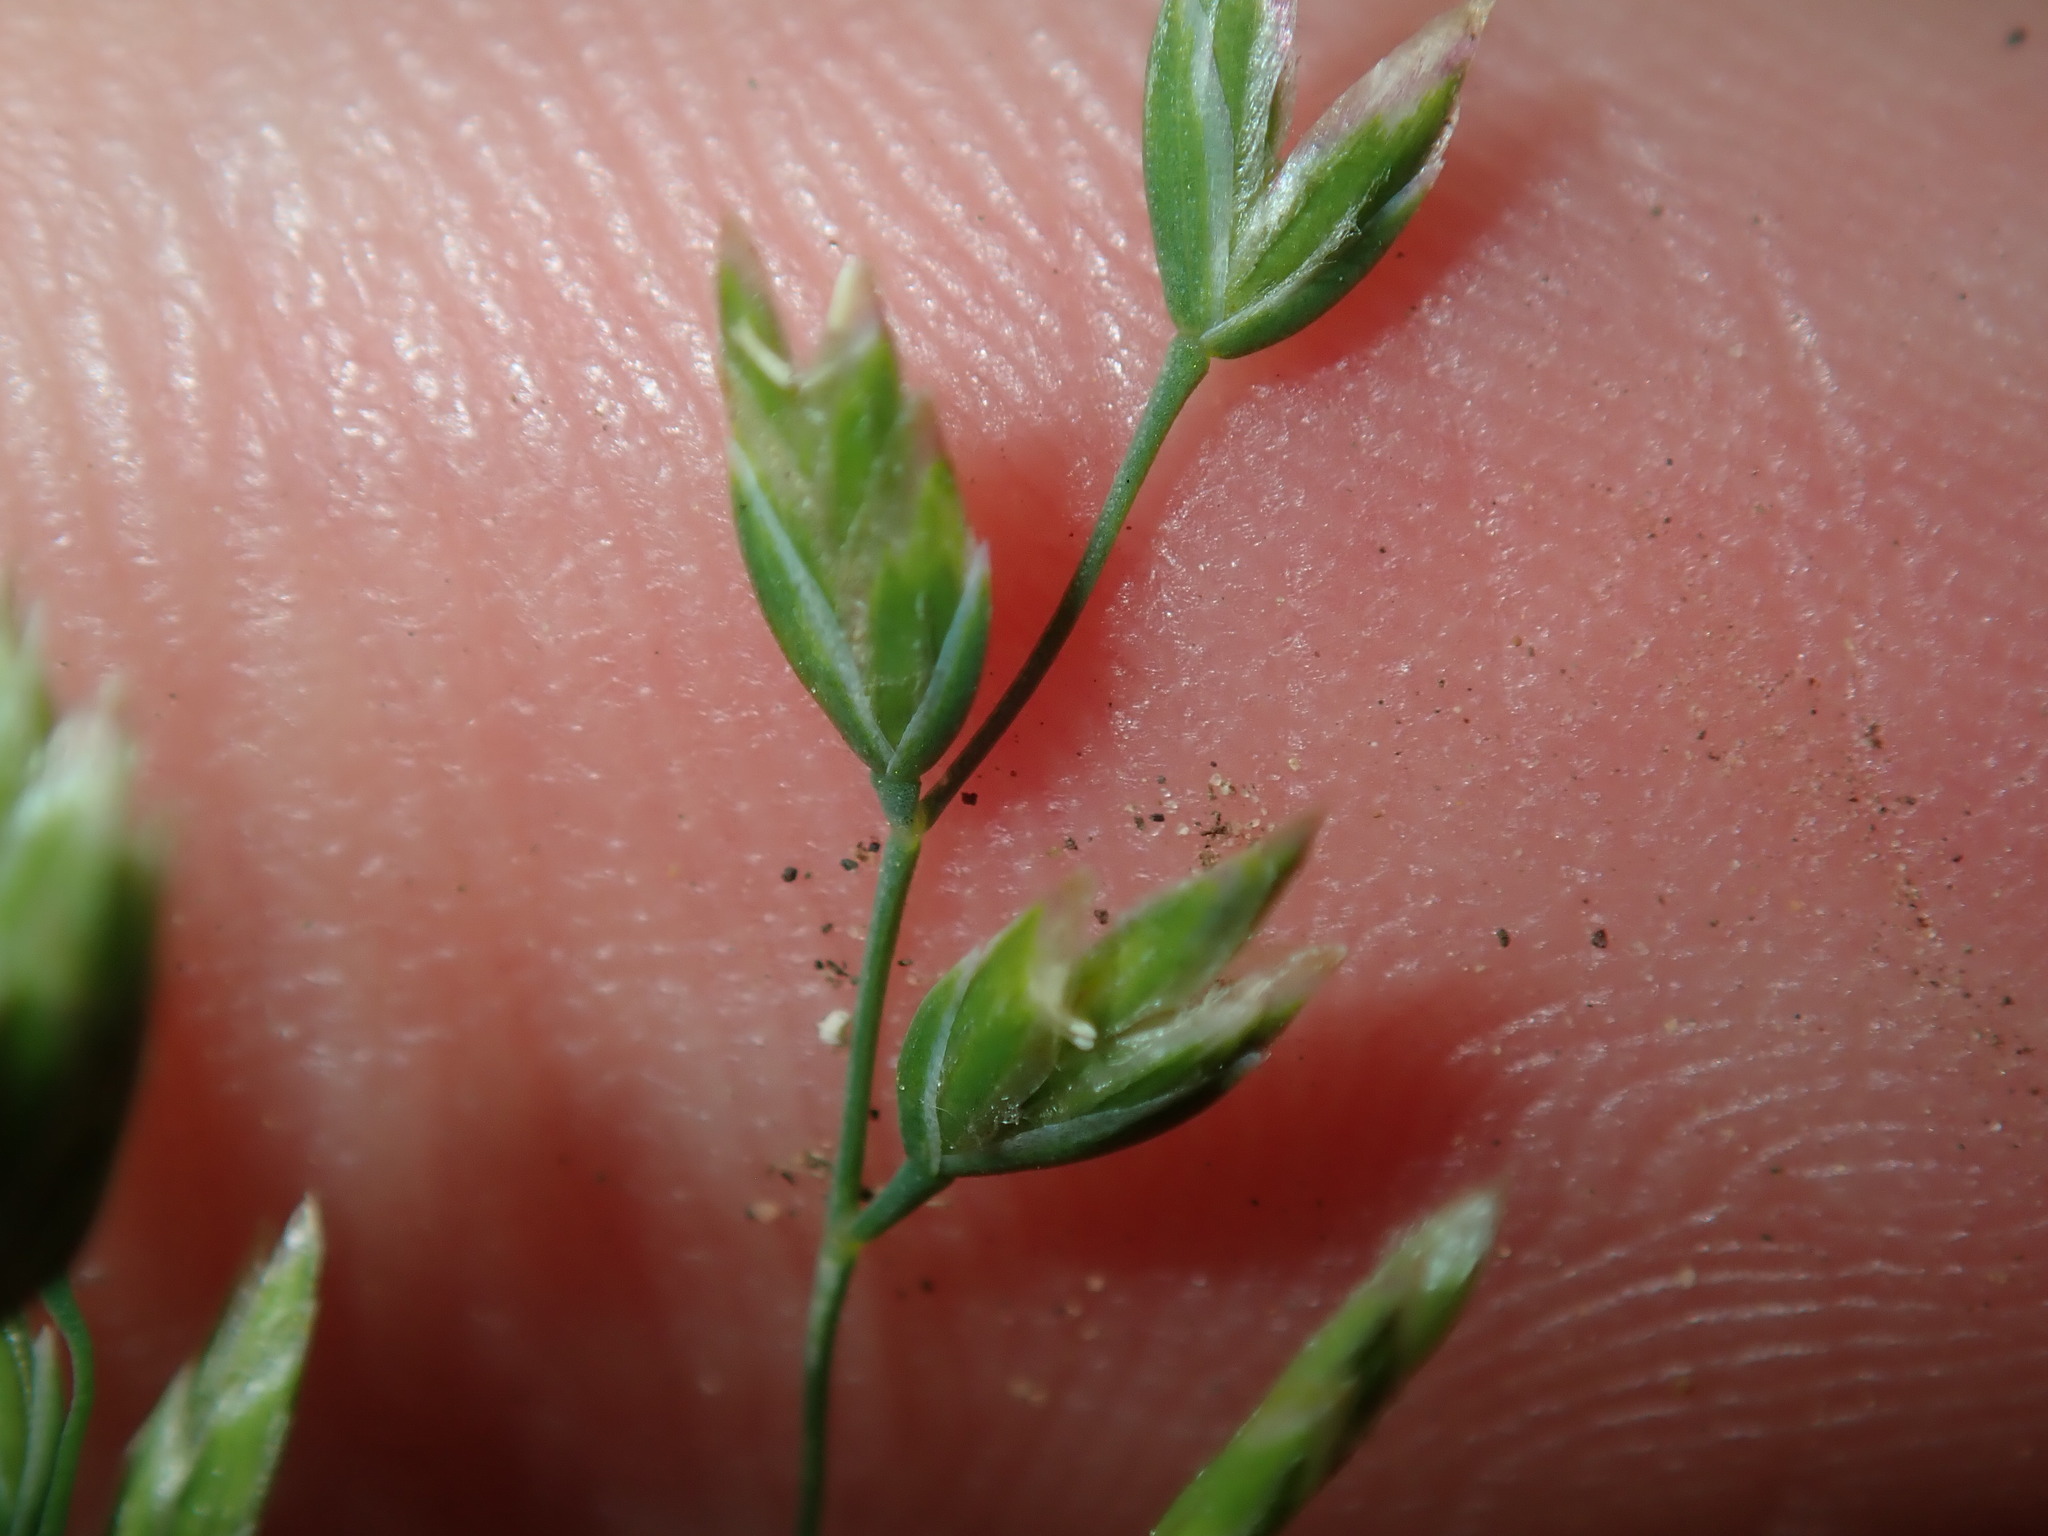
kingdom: Plantae
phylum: Tracheophyta
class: Liliopsida
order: Poales
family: Poaceae
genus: Poa
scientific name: Poa annua
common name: Annual bluegrass
